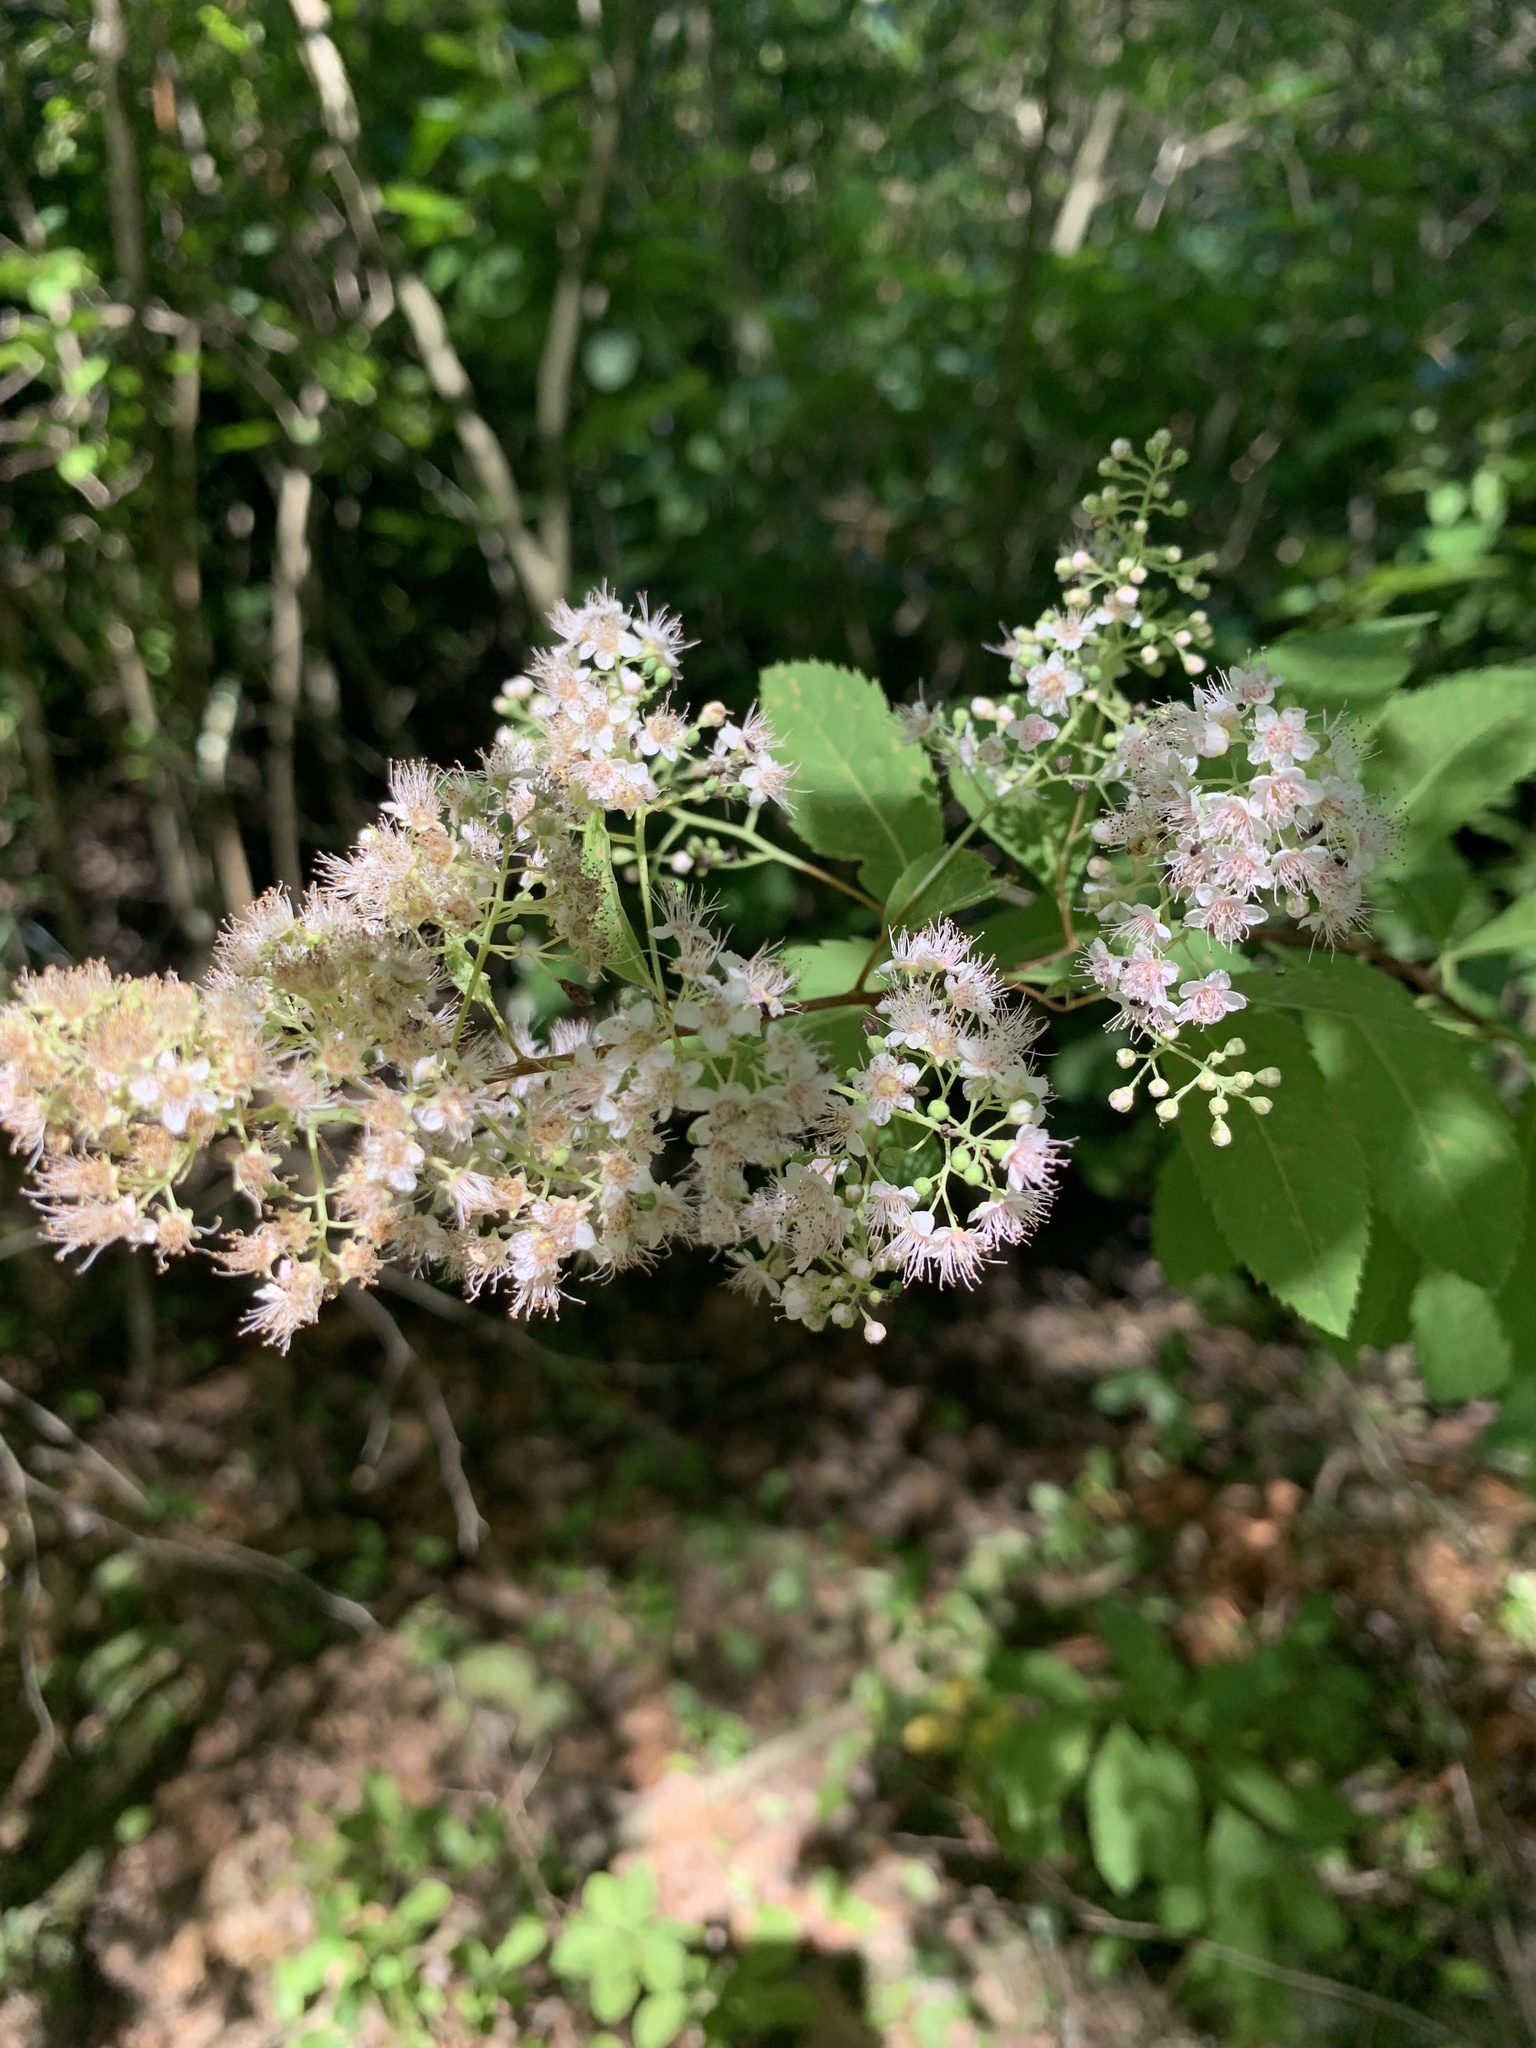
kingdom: Plantae
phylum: Tracheophyta
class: Magnoliopsida
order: Rosales
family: Rosaceae
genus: Spiraea
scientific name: Spiraea alba
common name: Pale bridewort
